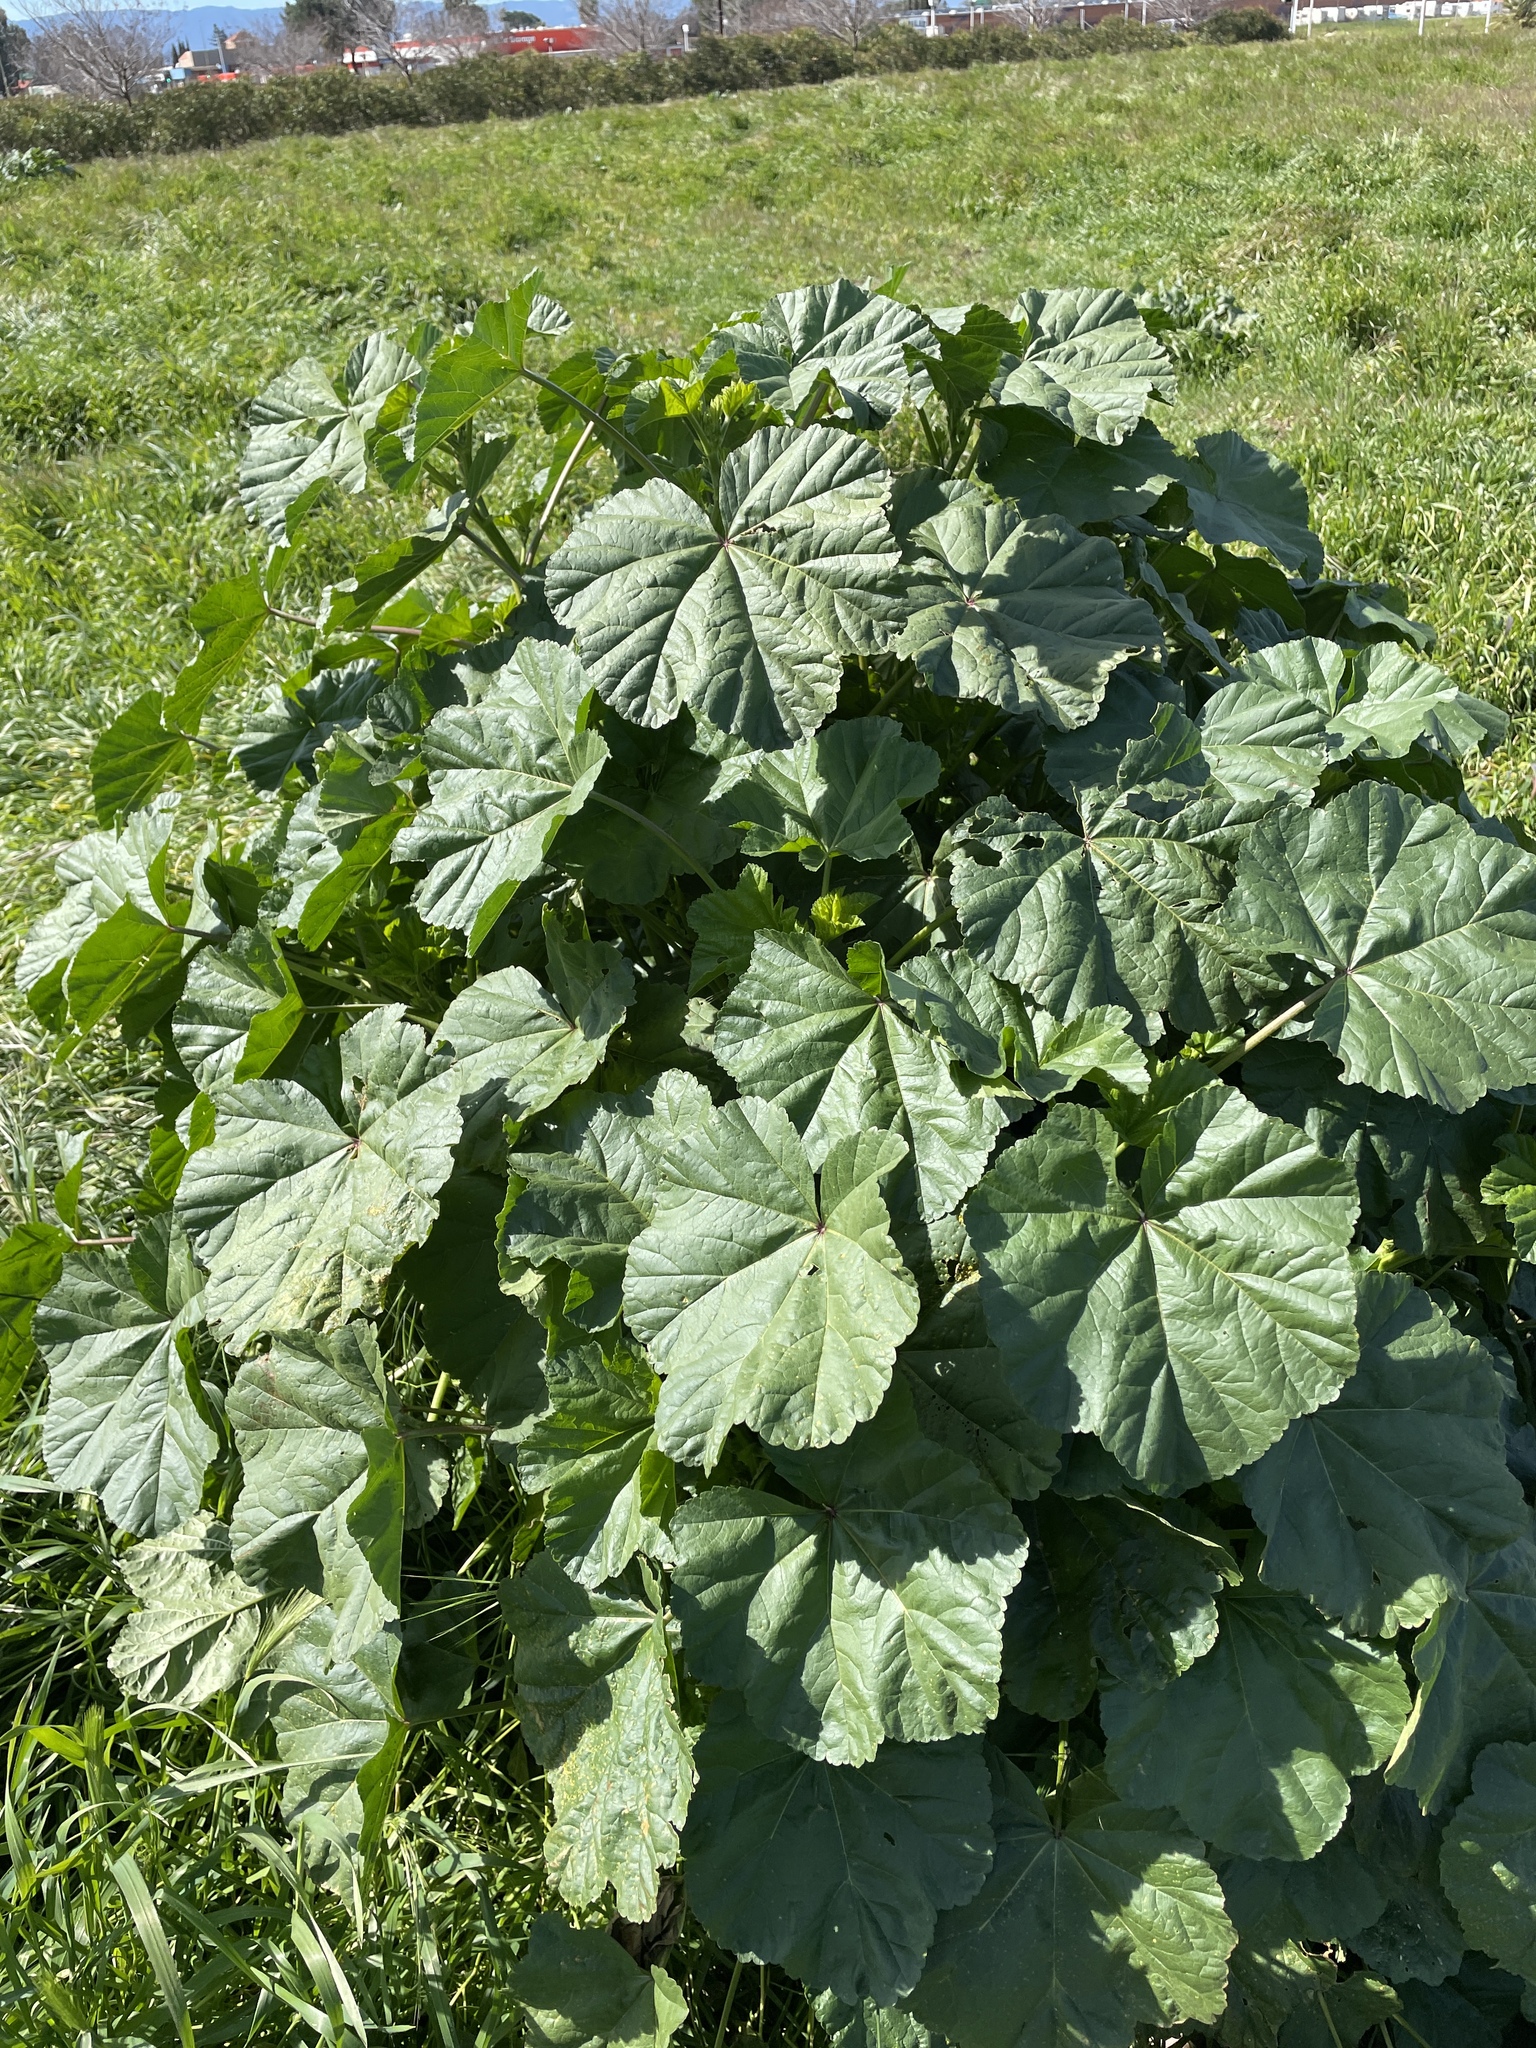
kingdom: Plantae
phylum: Tracheophyta
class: Magnoliopsida
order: Malvales
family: Malvaceae
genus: Malva
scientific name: Malva
